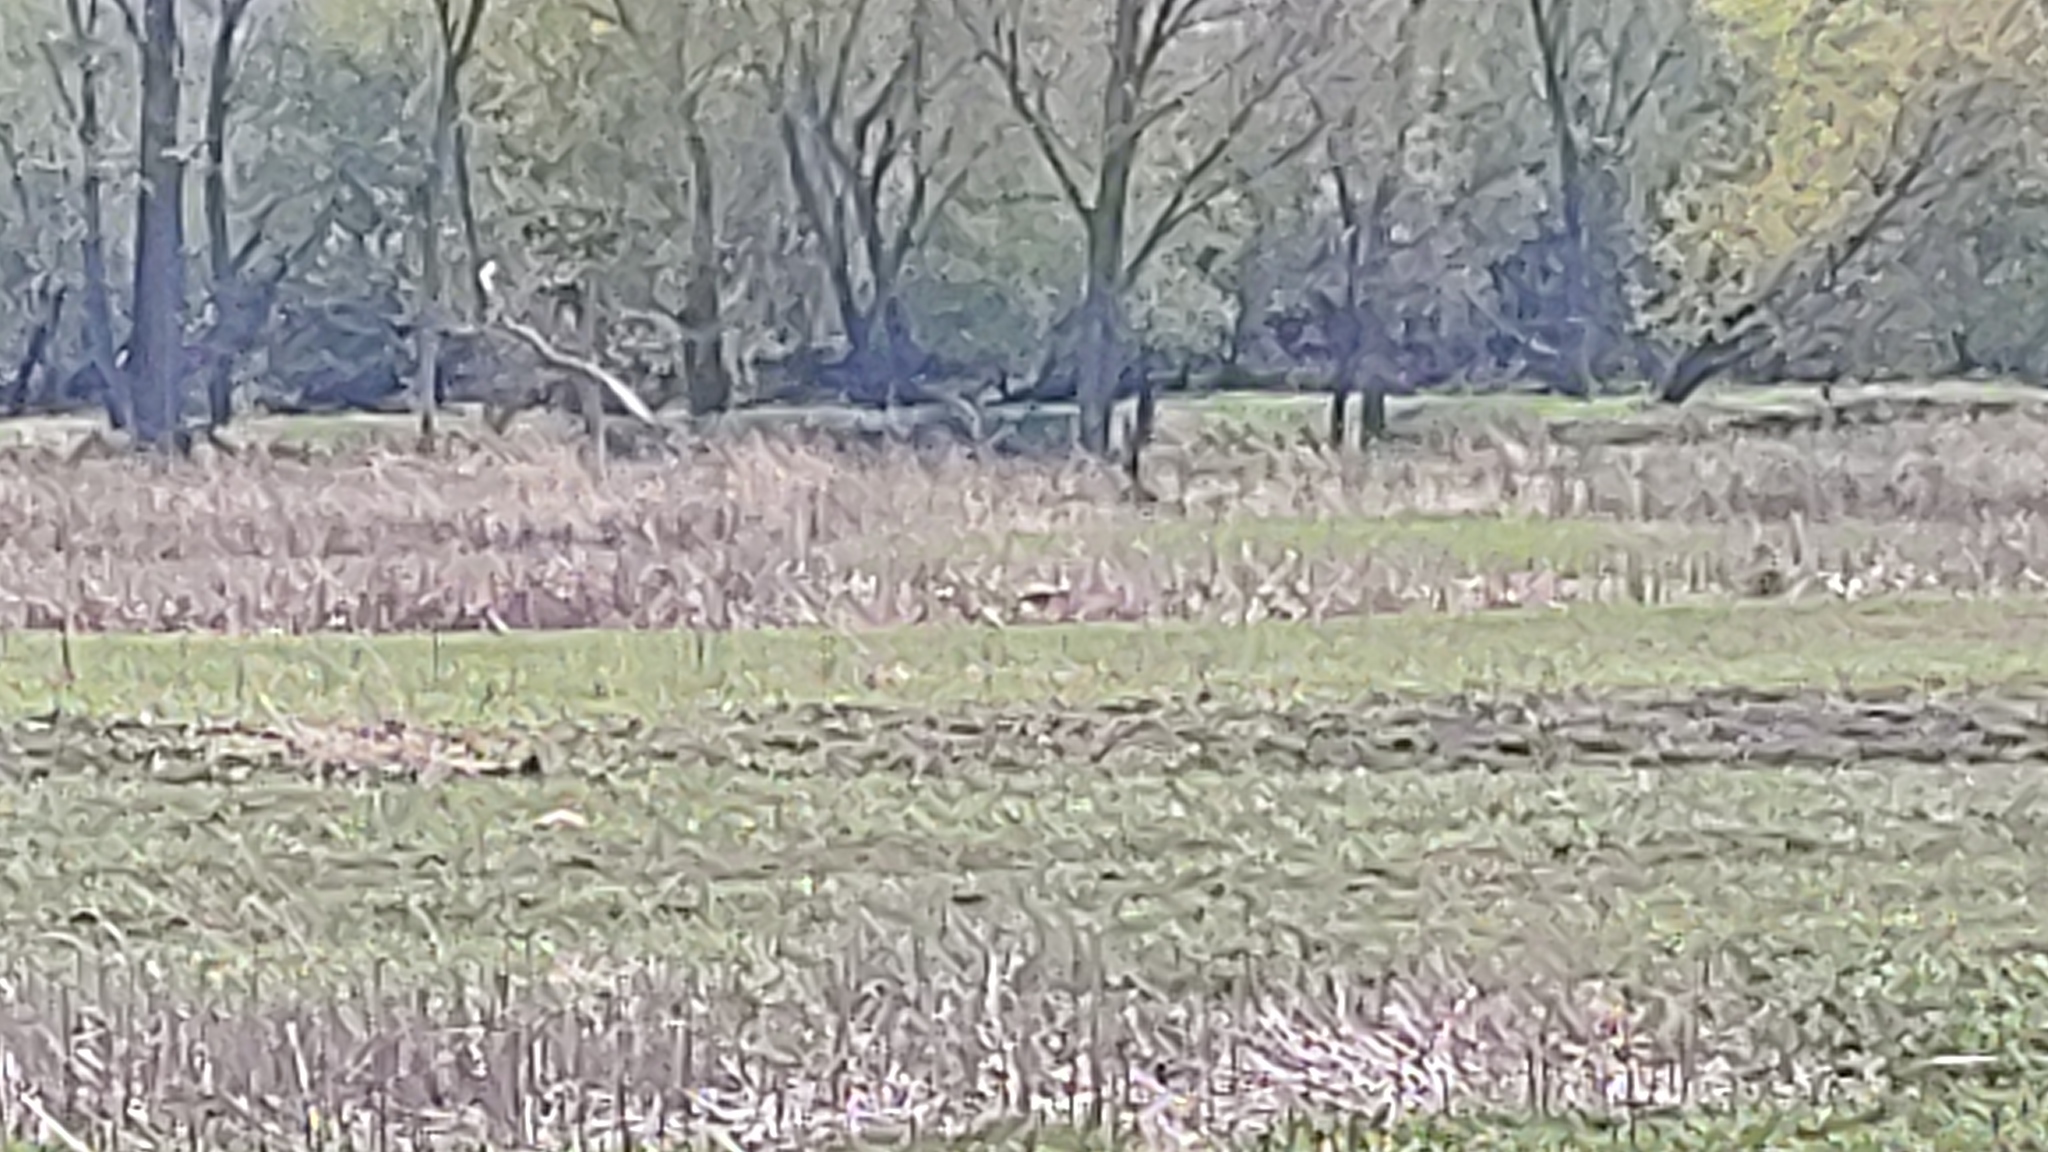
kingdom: Animalia
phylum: Chordata
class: Aves
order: Gruiformes
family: Gruidae
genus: Grus
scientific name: Grus canadensis
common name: Sandhill crane
